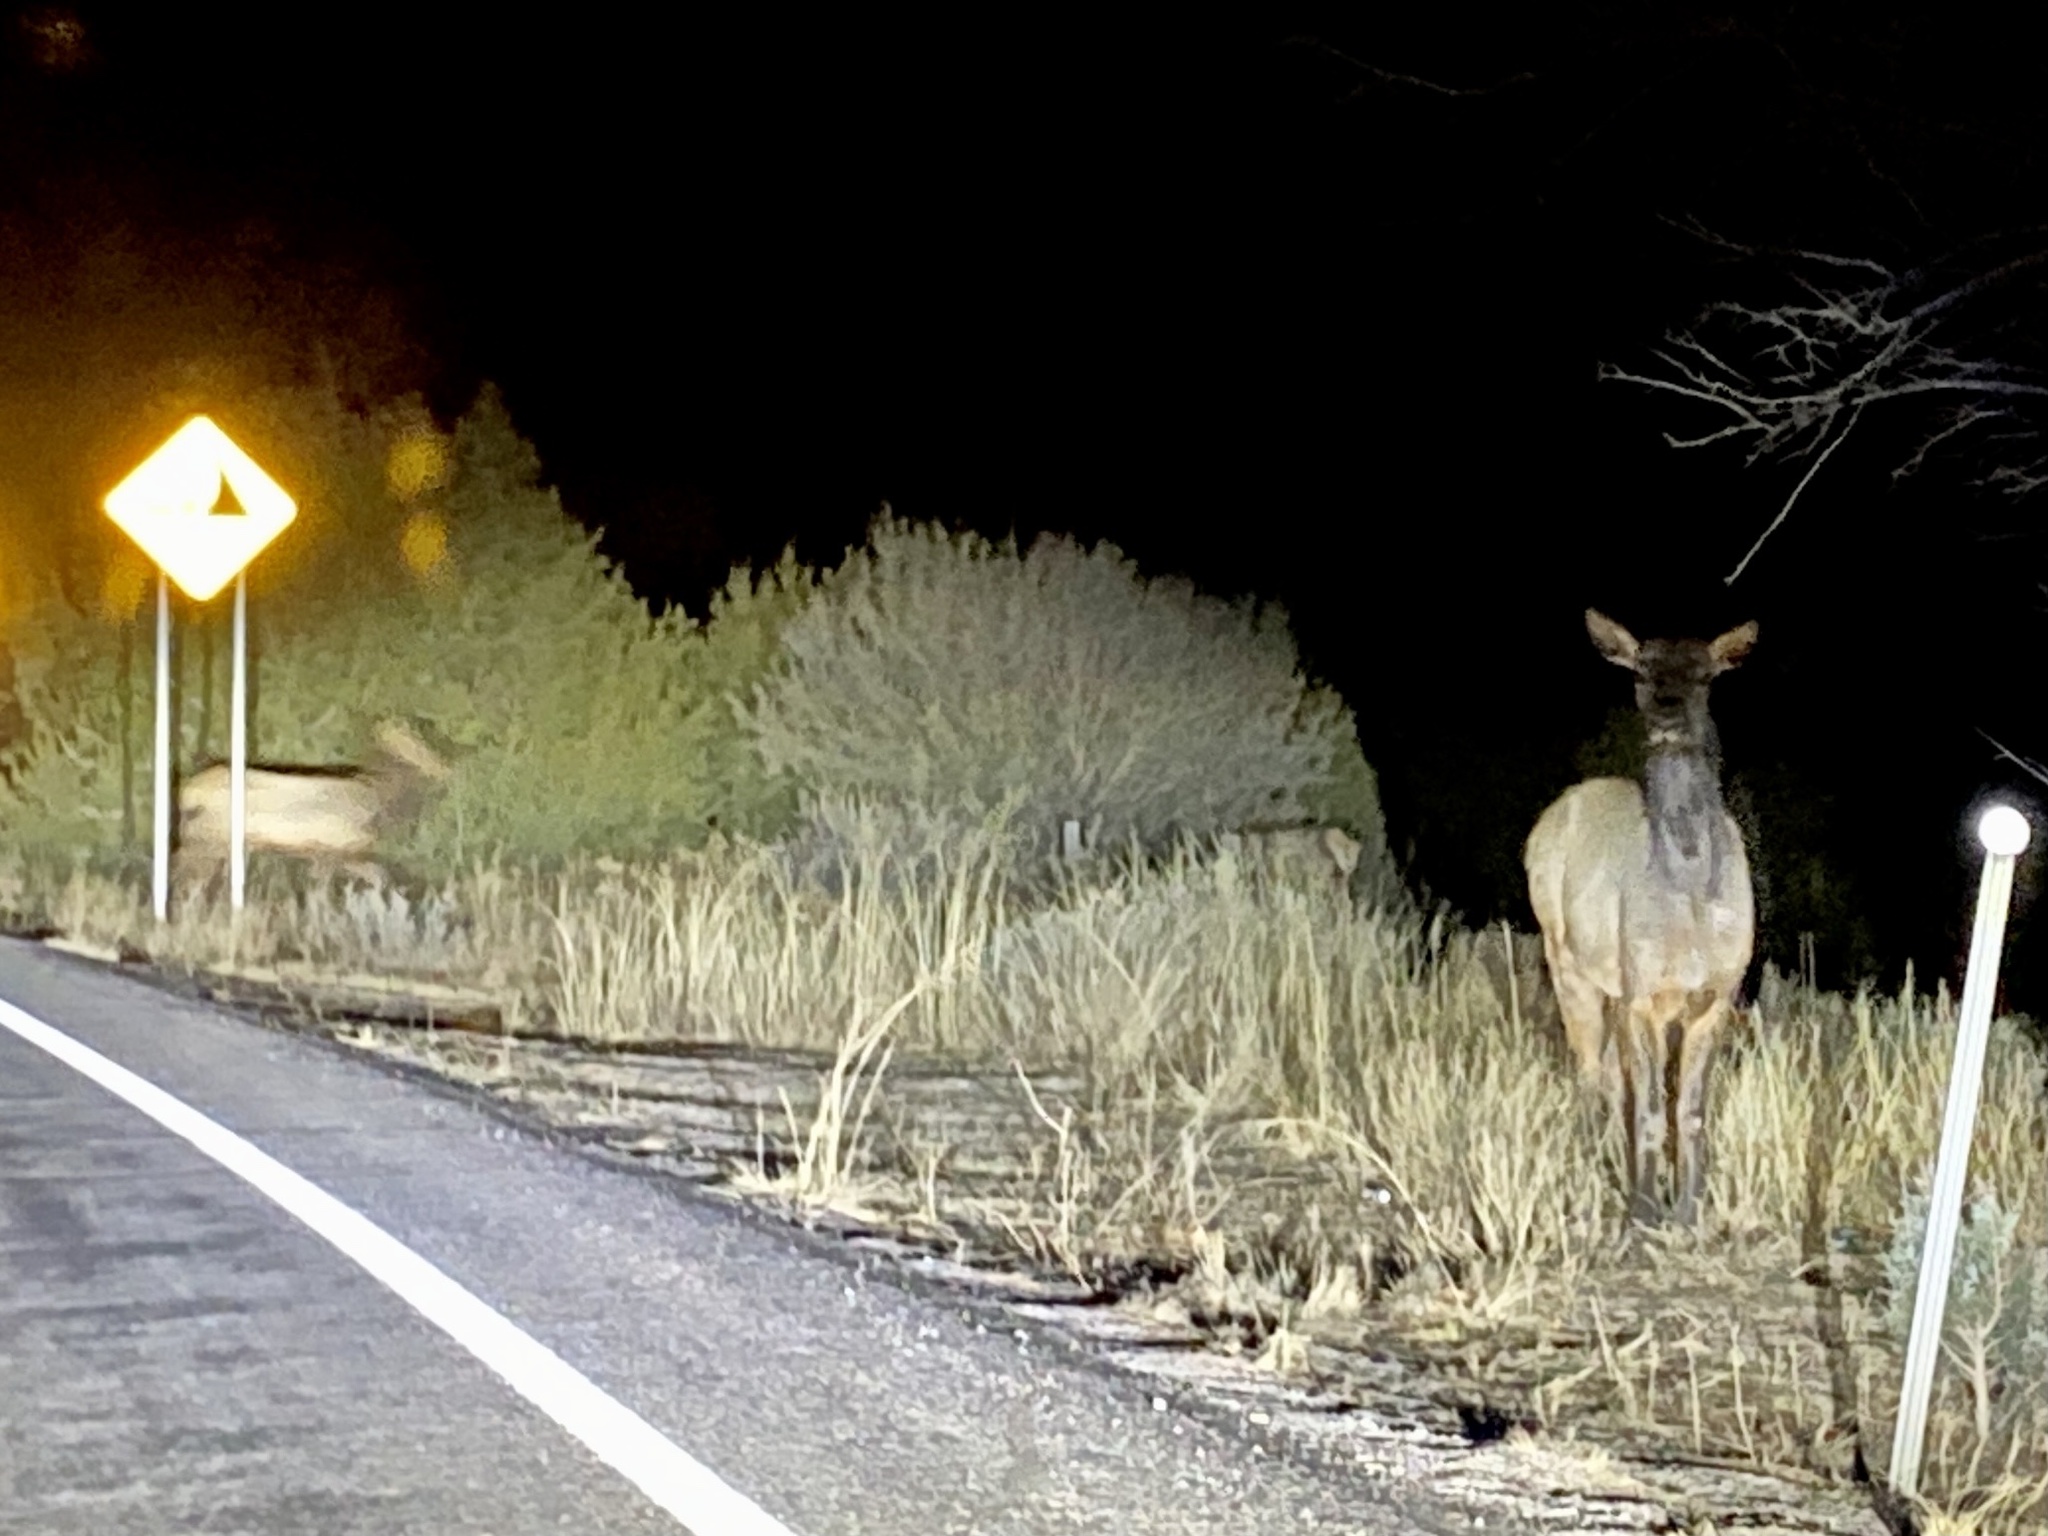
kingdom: Animalia
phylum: Chordata
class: Mammalia
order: Artiodactyla
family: Cervidae
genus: Cervus
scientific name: Cervus elaphus
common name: Red deer
